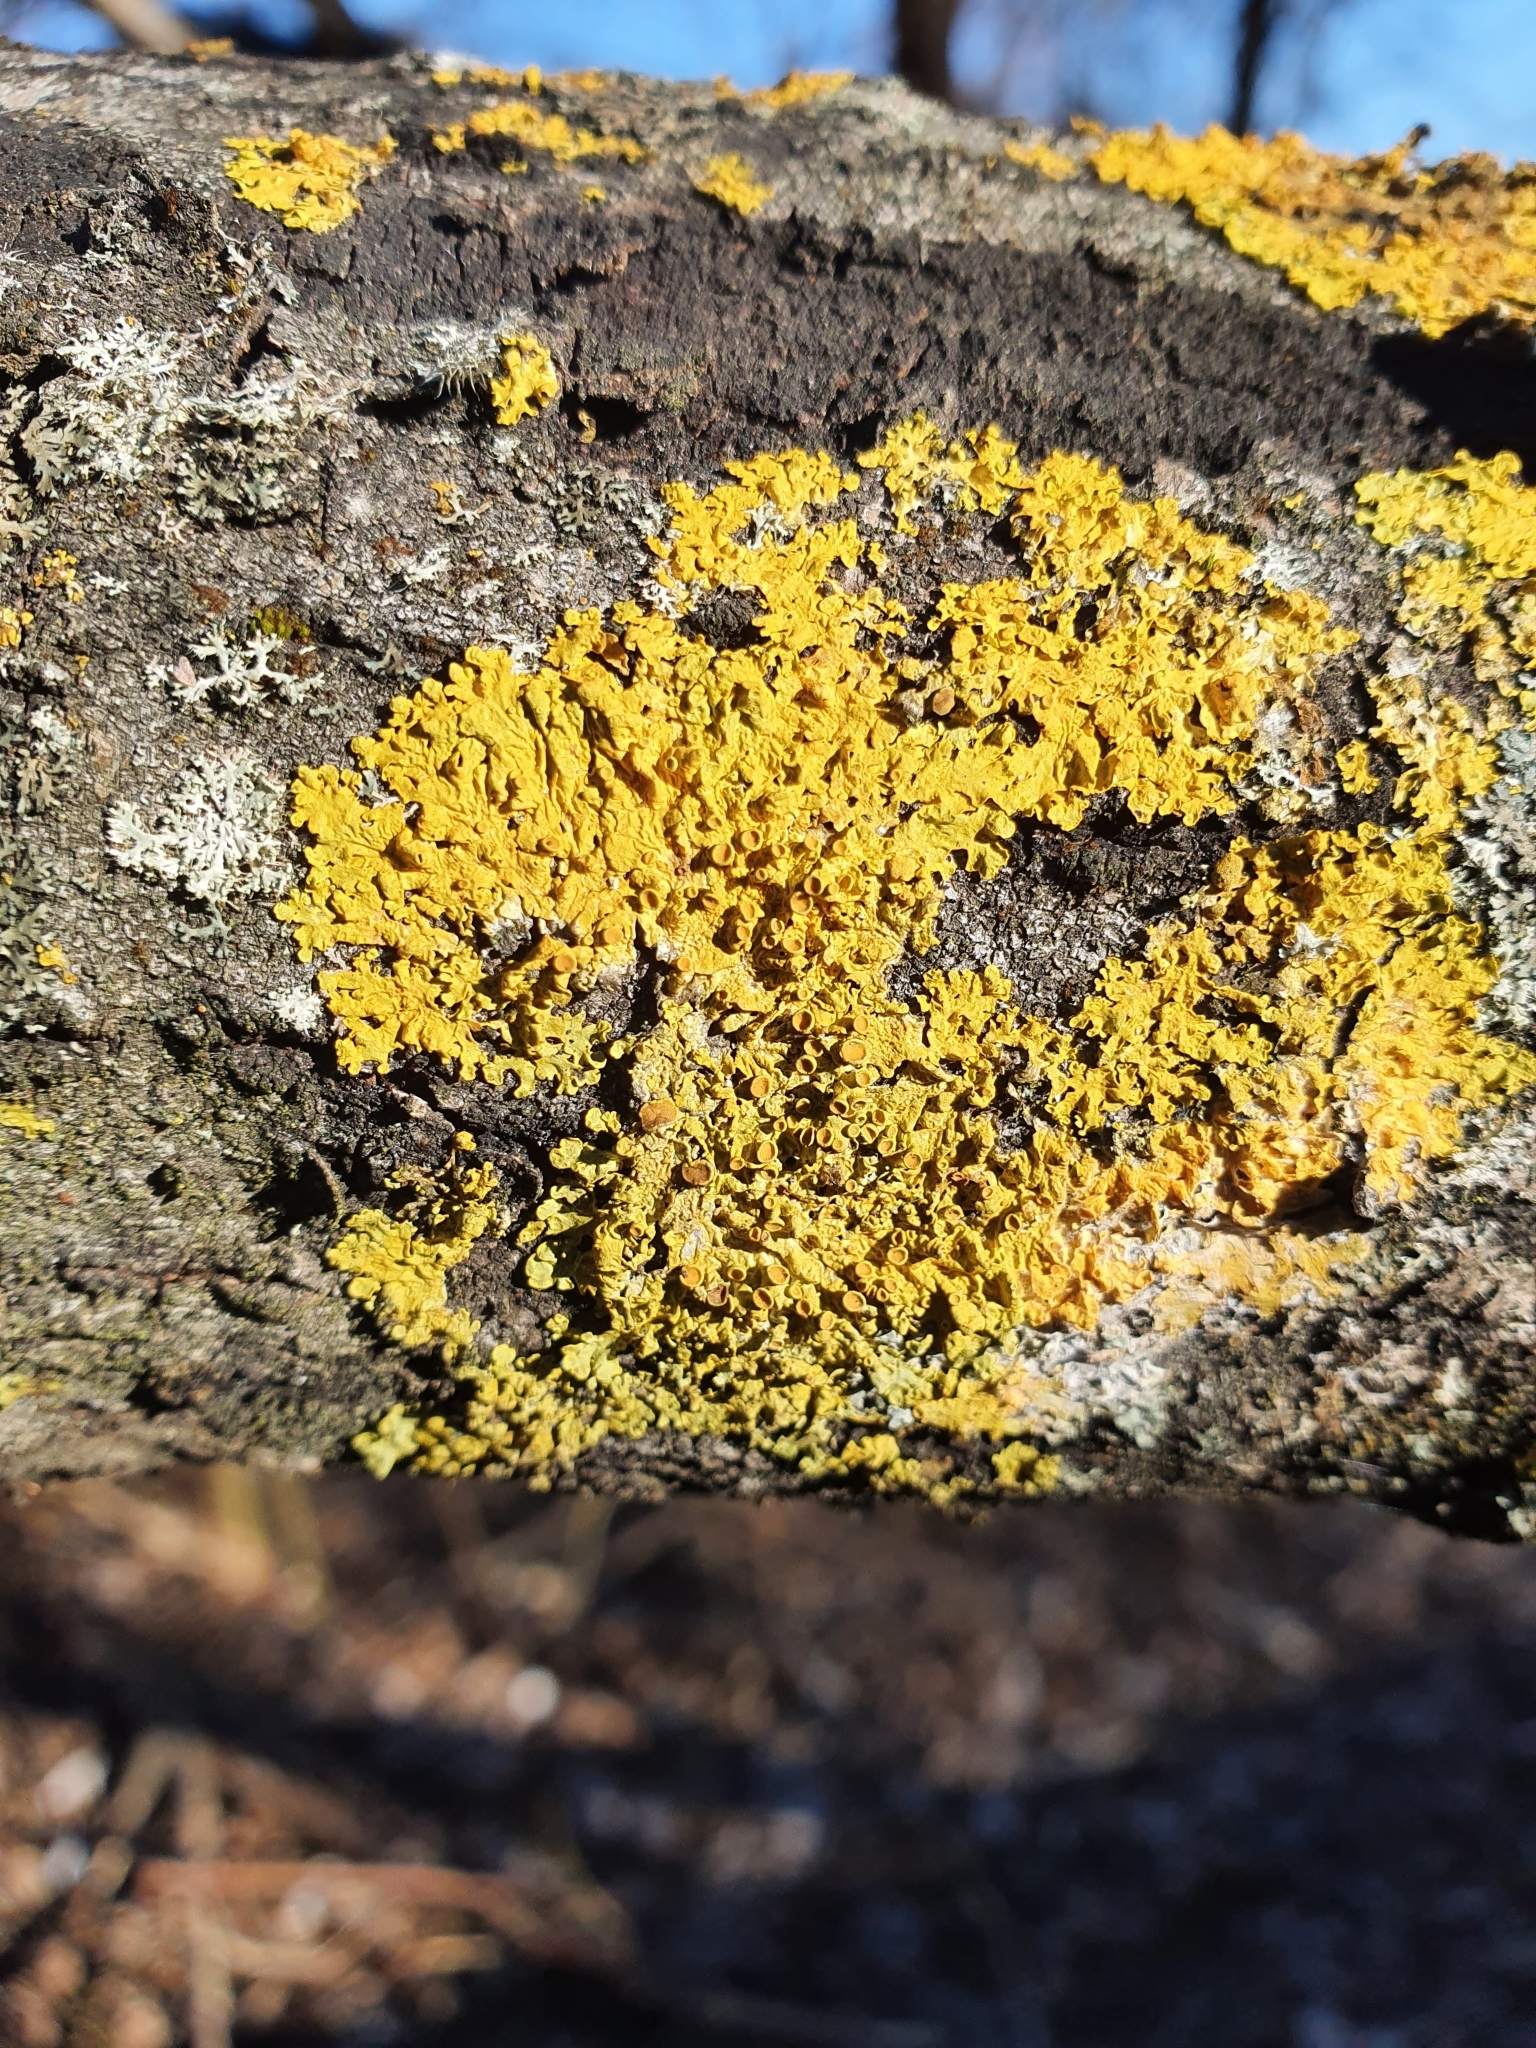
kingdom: Fungi
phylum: Ascomycota
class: Lecanoromycetes
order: Teloschistales
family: Teloschistaceae
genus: Xanthoria
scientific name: Xanthoria parietina
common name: Common orange lichen
